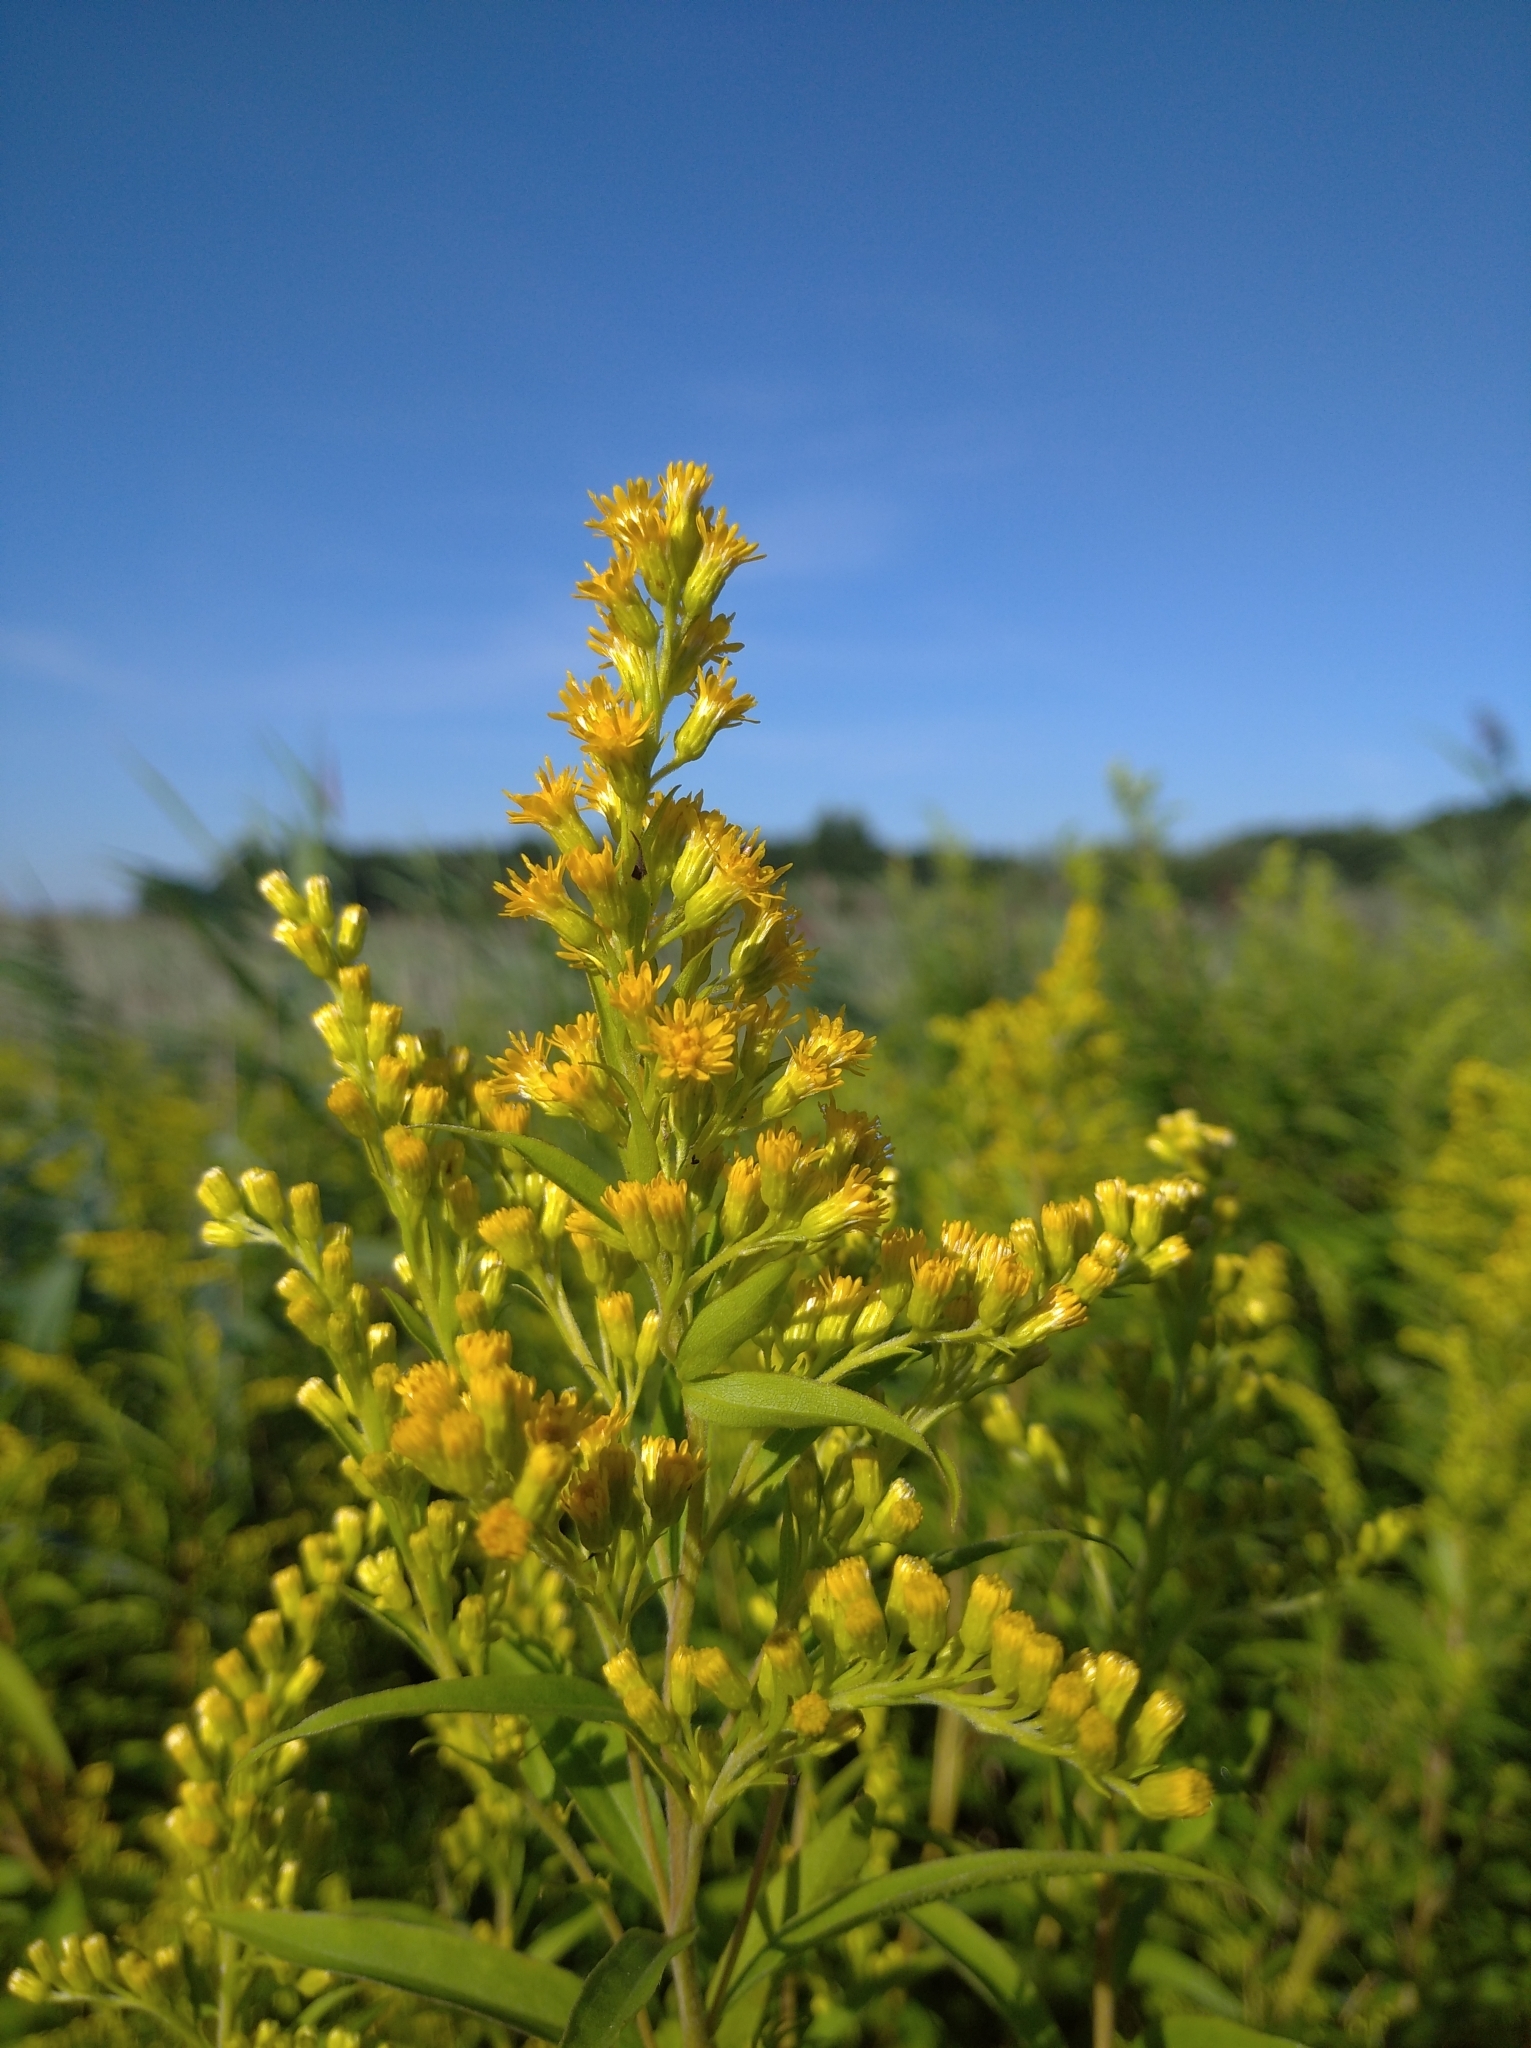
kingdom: Plantae
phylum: Tracheophyta
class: Magnoliopsida
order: Asterales
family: Asteraceae
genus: Solidago
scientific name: Solidago gigantea
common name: Giant goldenrod
